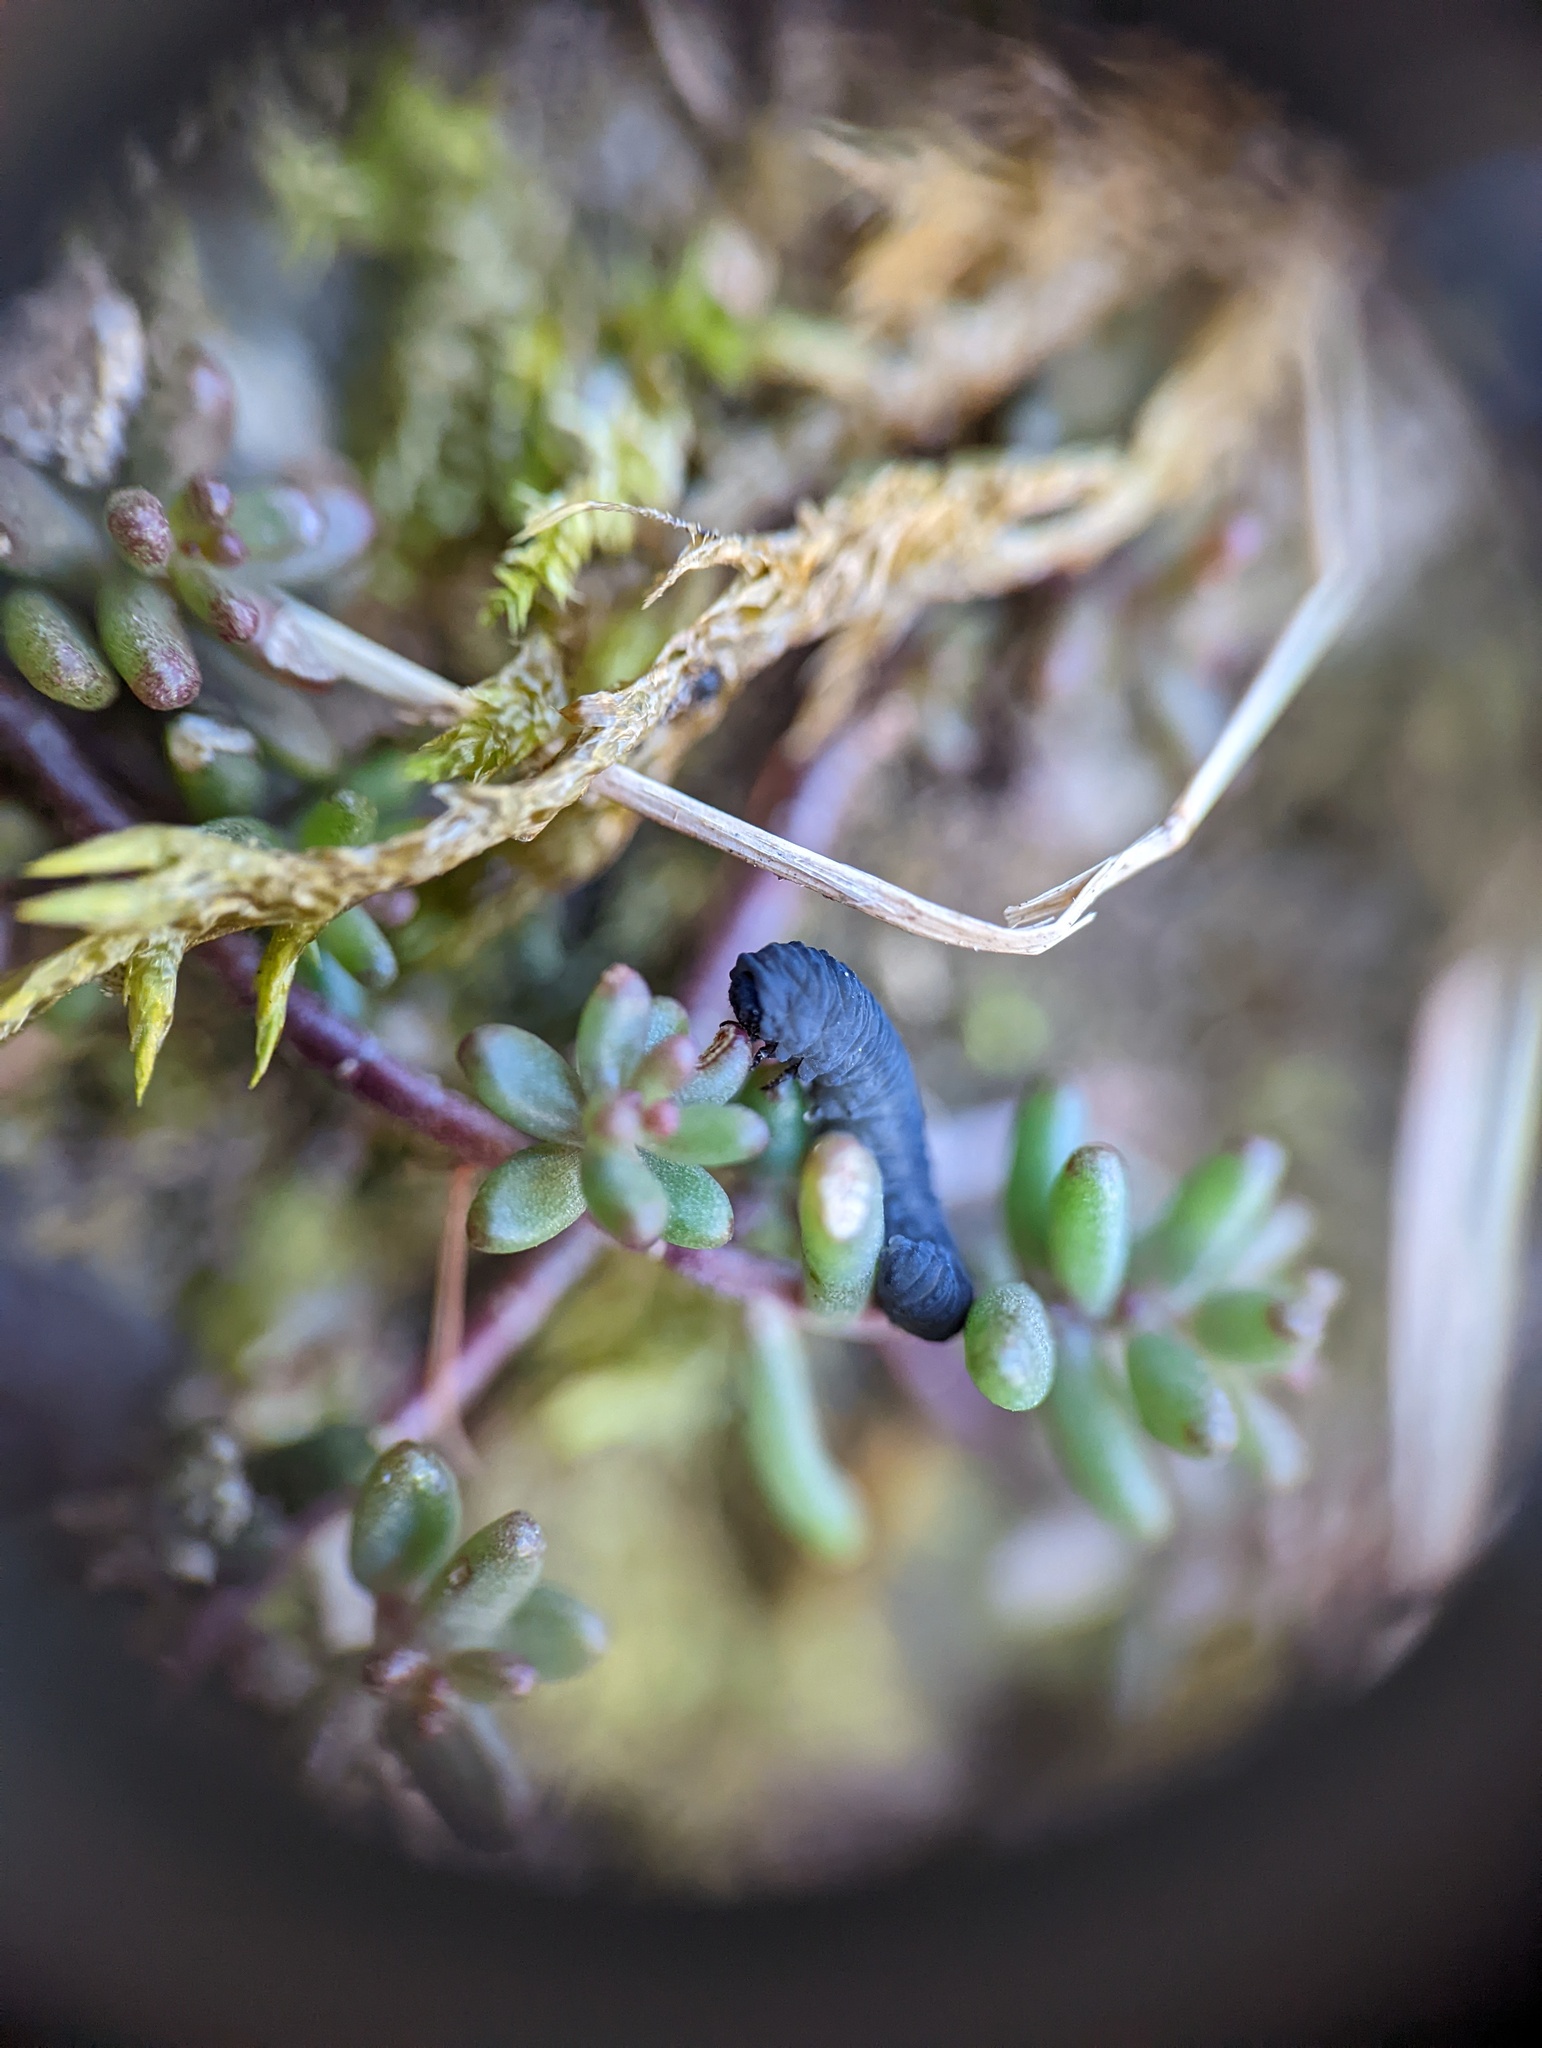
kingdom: Animalia
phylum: Arthropoda
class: Insecta
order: Hymenoptera
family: Tenthredinidae
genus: Athalia
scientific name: Athalia cornubiae
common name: Sawfly
